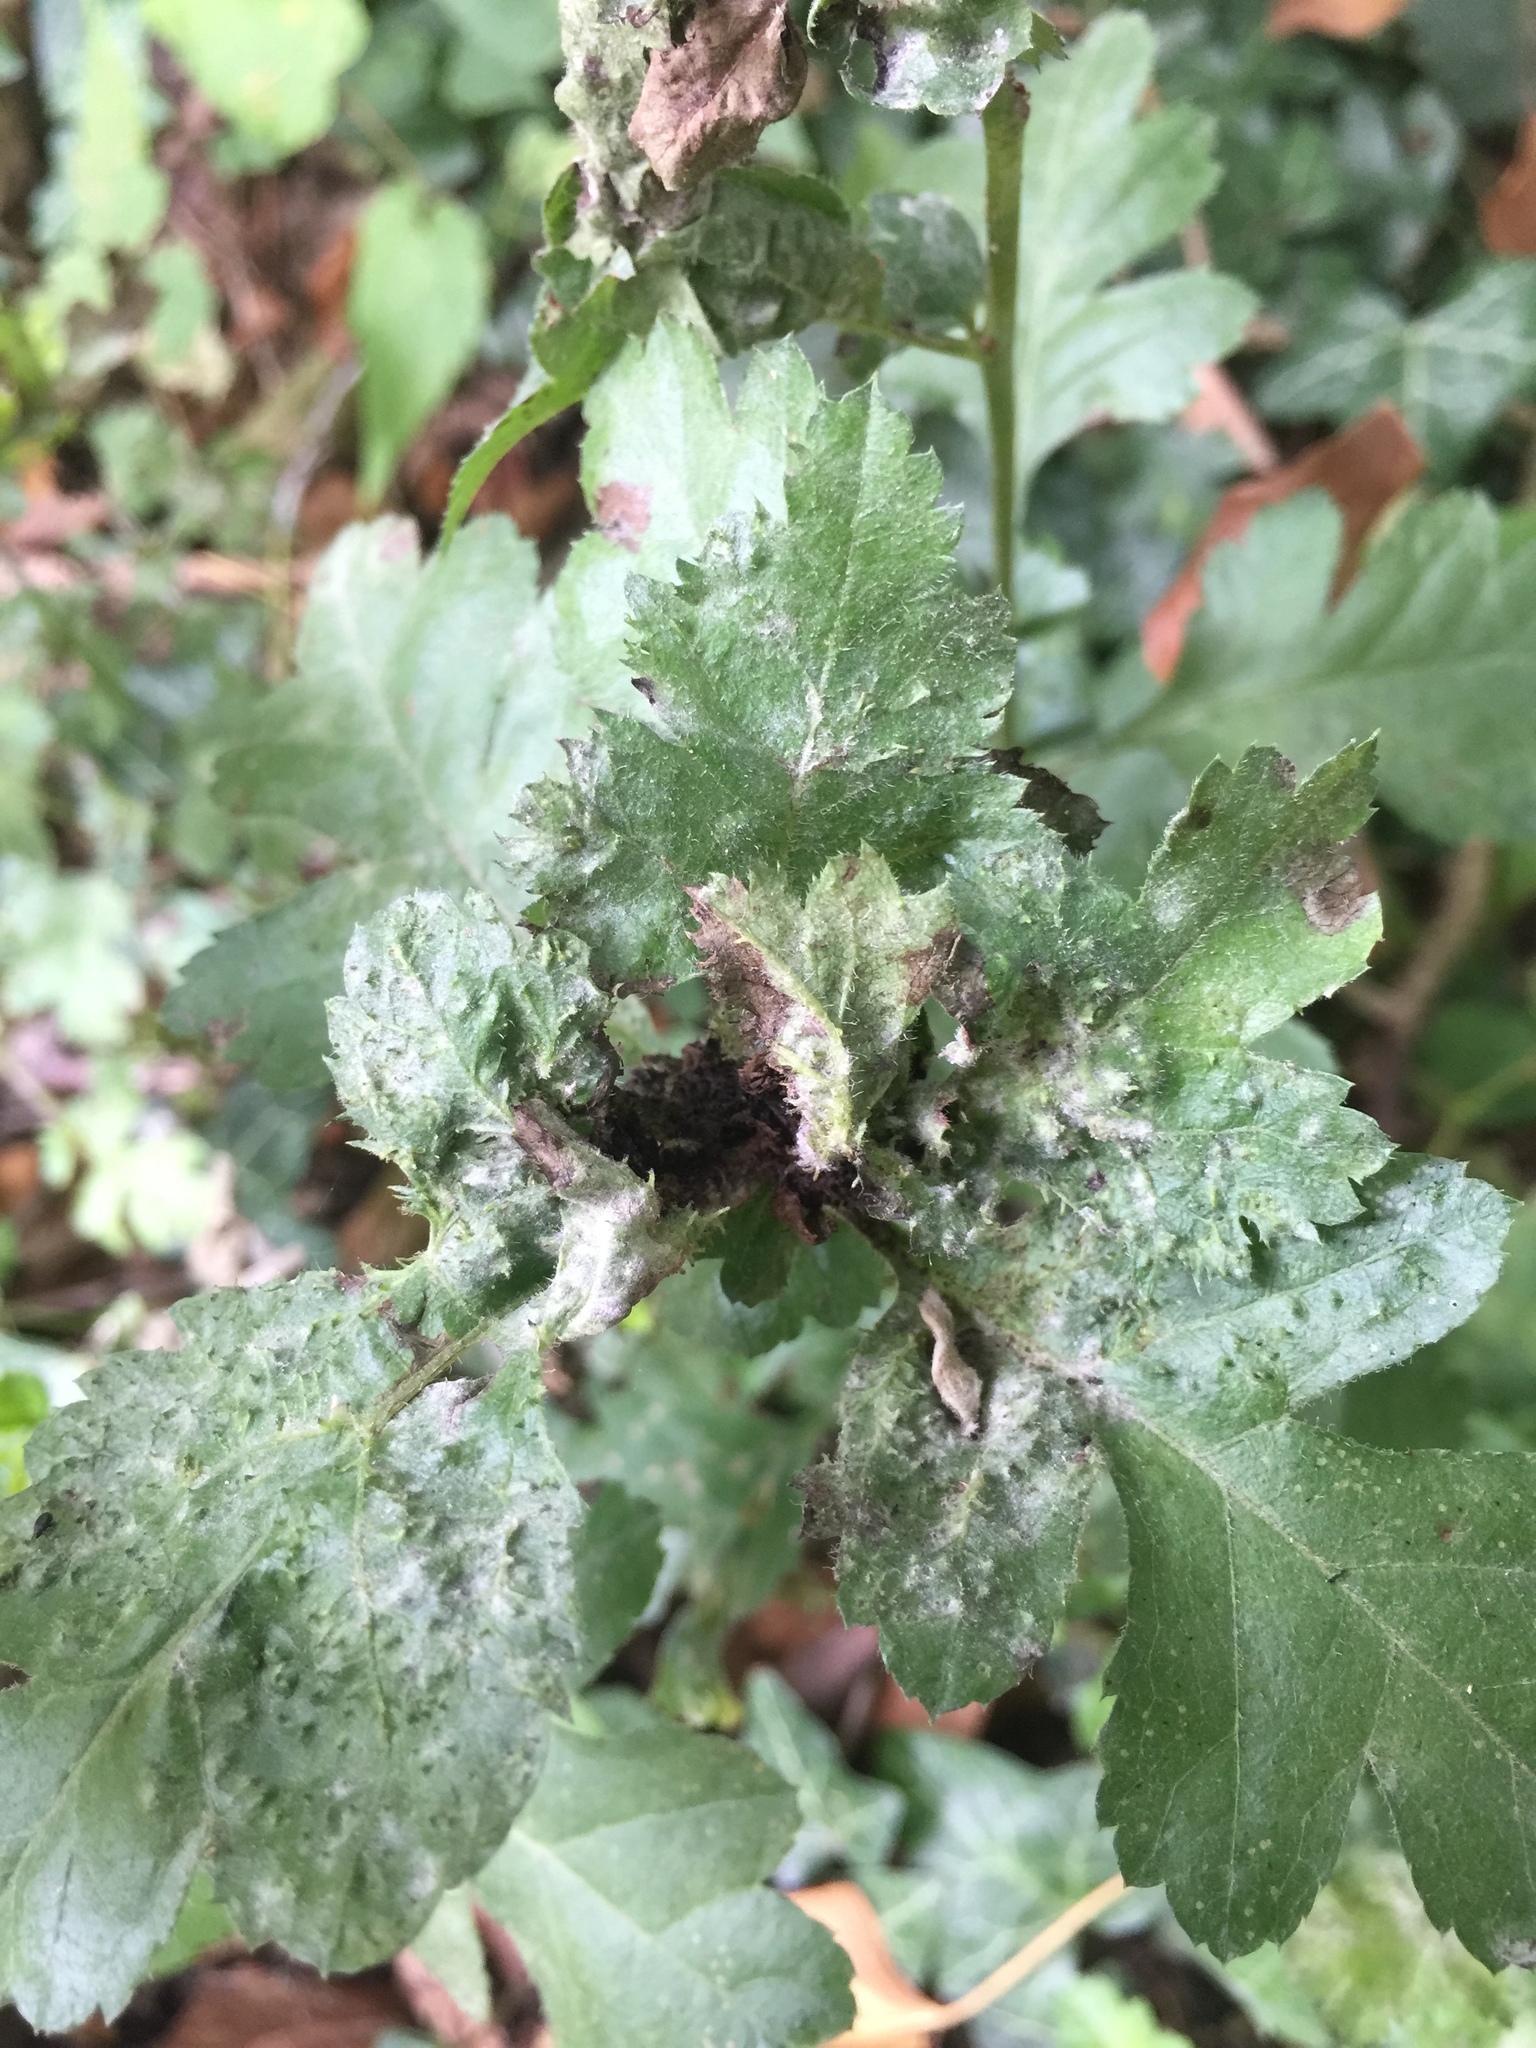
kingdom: Animalia
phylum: Arthropoda
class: Insecta
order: Diptera
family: Cecidomyiidae
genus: Dasineura
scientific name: Dasineura crataegi
